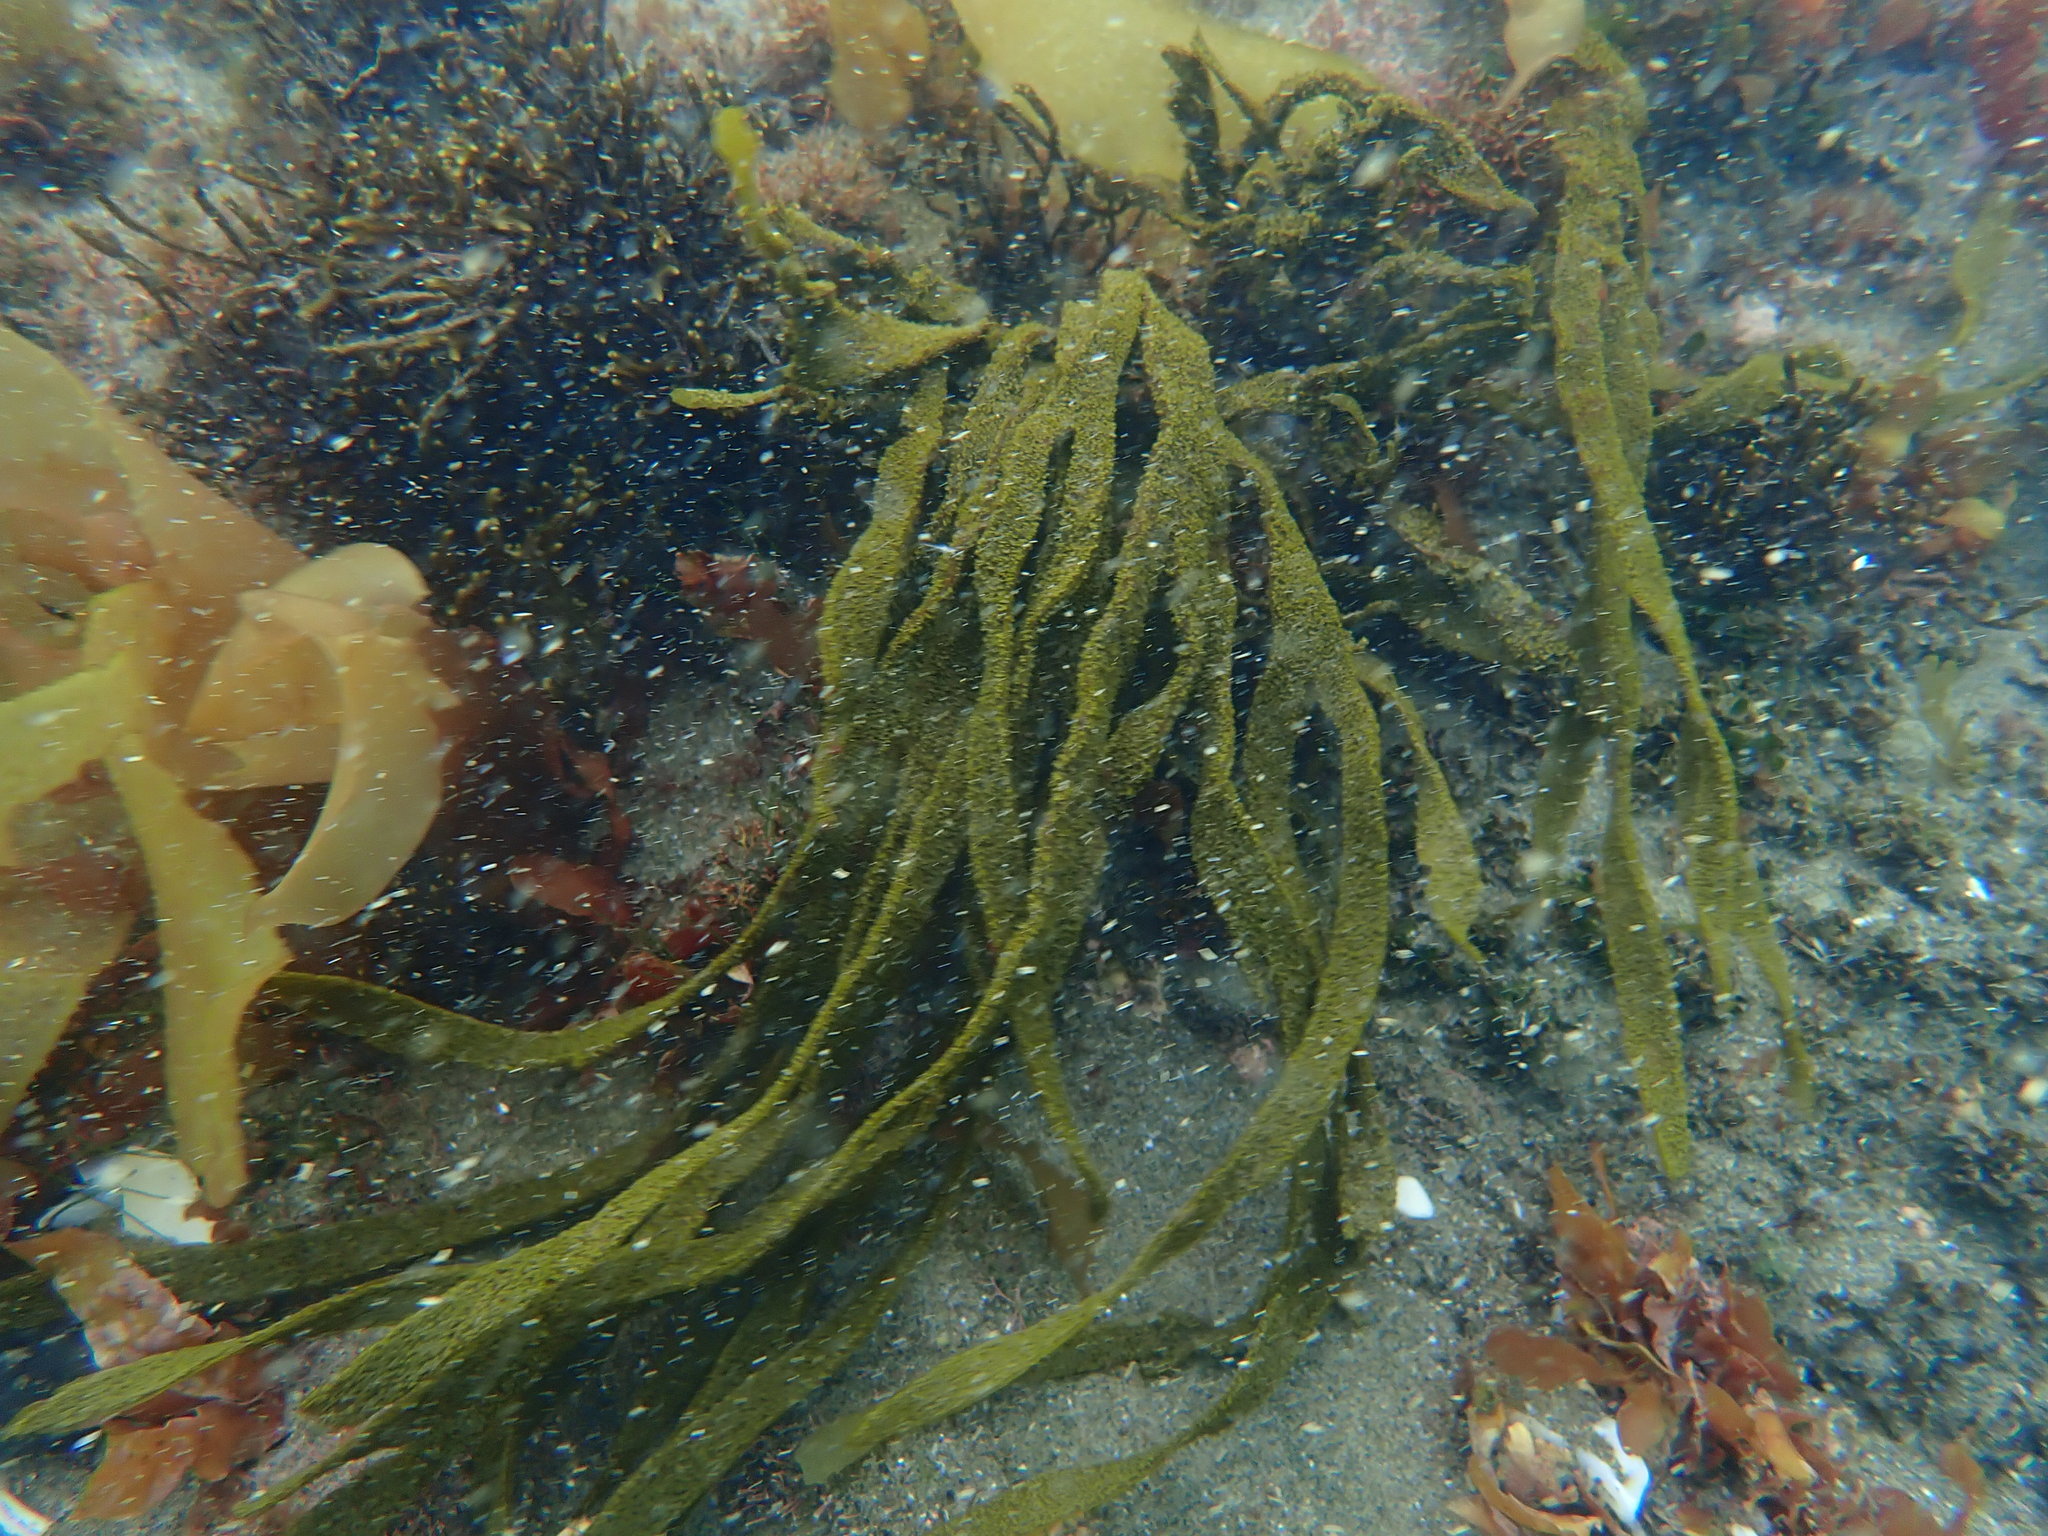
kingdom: Chromista
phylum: Ochrophyta
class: Phaeophyceae
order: Dictyotales
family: Dictyotaceae
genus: Dictyota
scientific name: Dictyota kunthii
